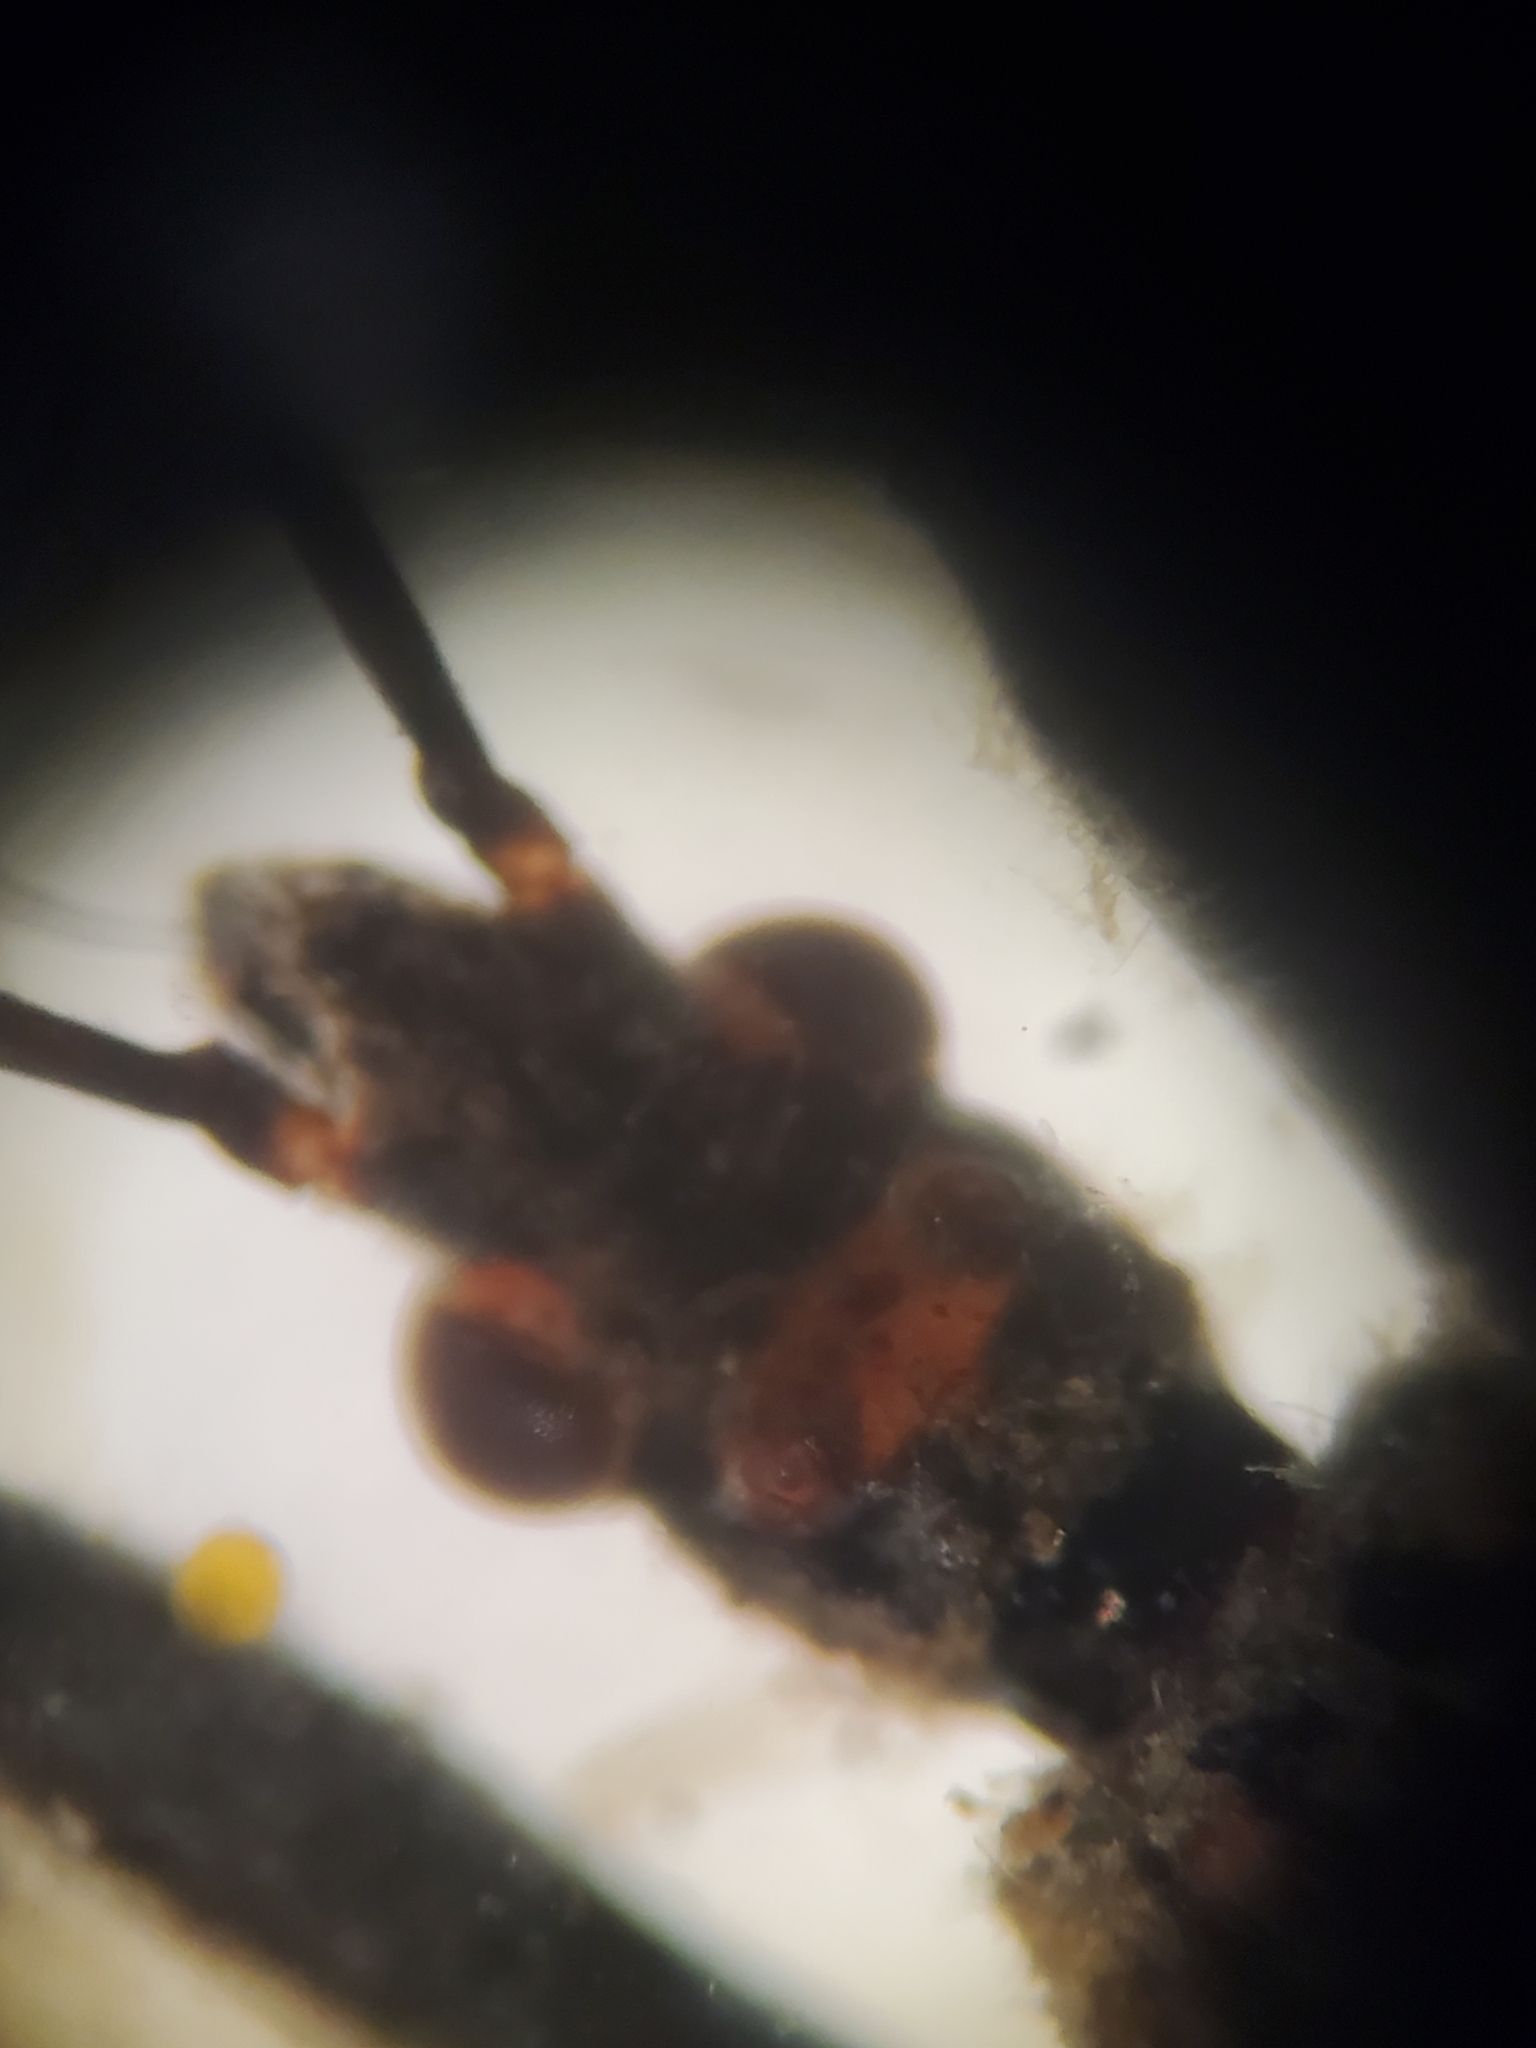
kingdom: Animalia
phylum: Arthropoda
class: Insecta
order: Hemiptera
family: Reduviidae
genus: Rhynocoris
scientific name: Rhynocoris ventralis
